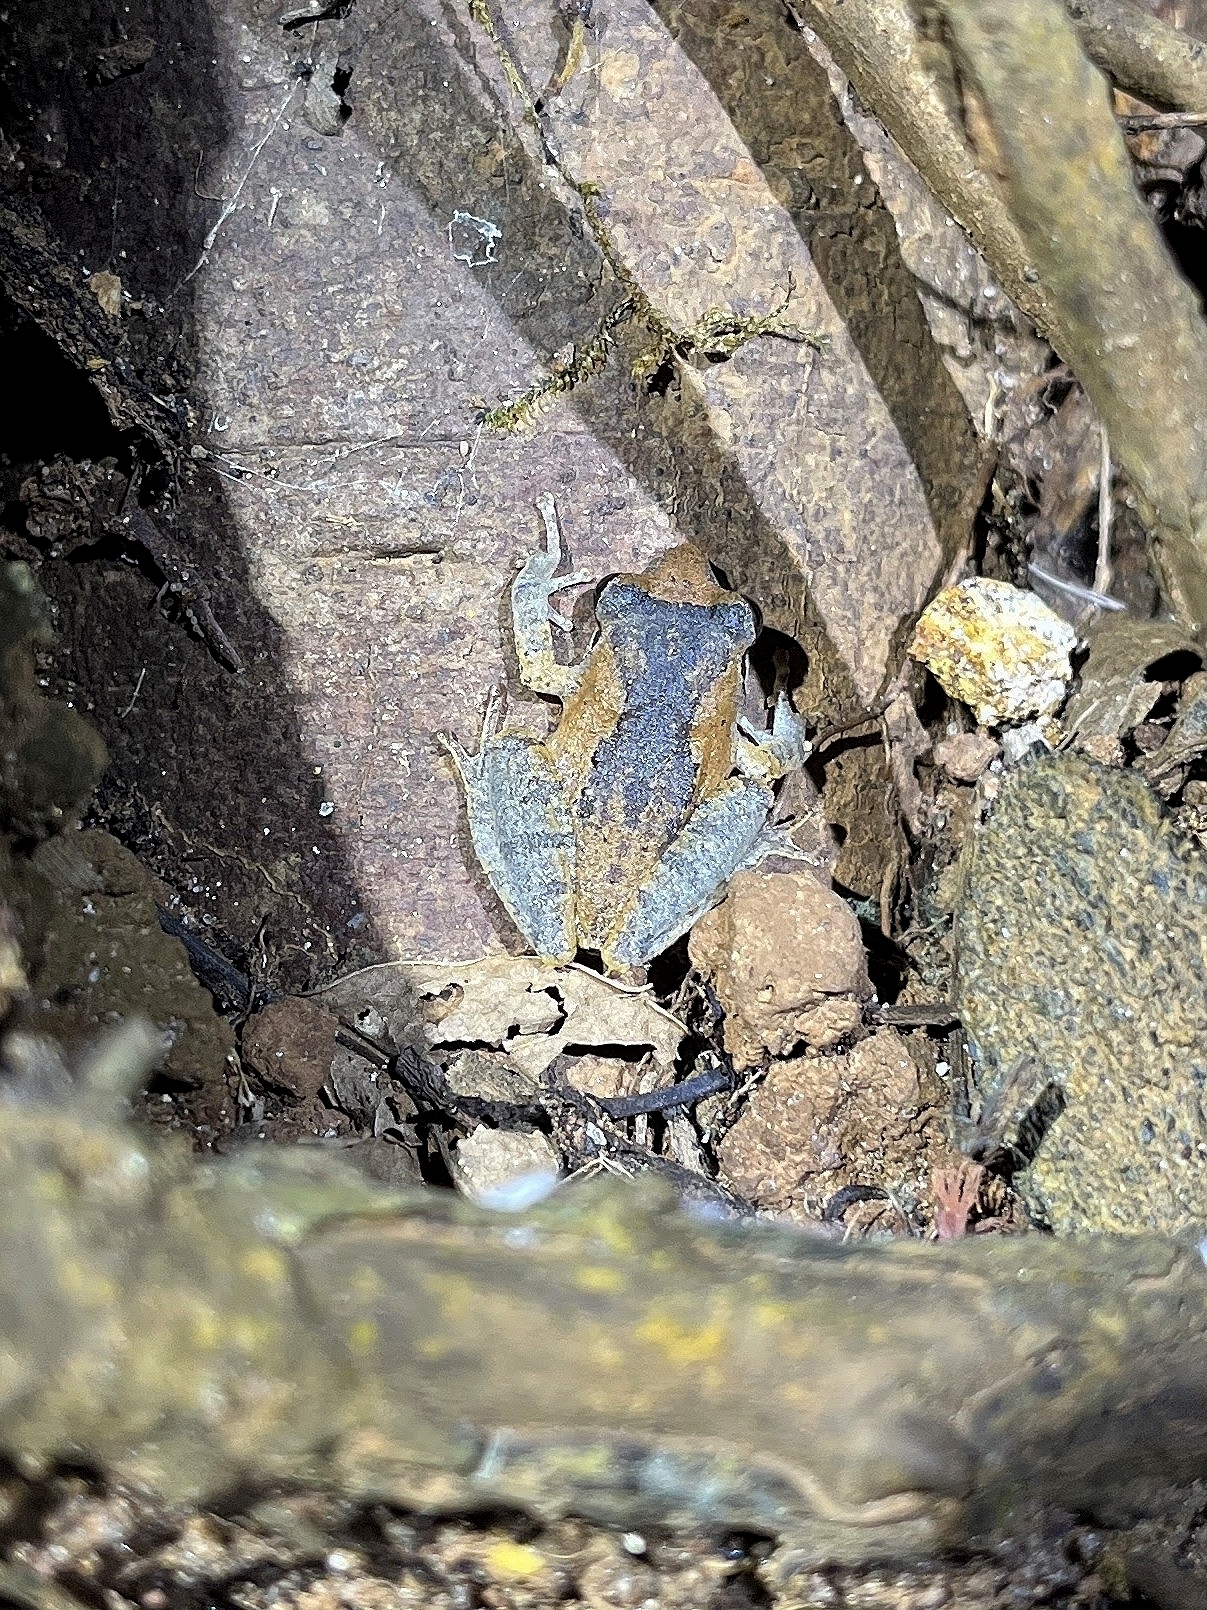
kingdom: Animalia
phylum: Chordata
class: Amphibia
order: Anura
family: Rhacophoridae
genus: Pseudophilautus
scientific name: Pseudophilautus wynaadensis
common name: Dark-eared bush frog
